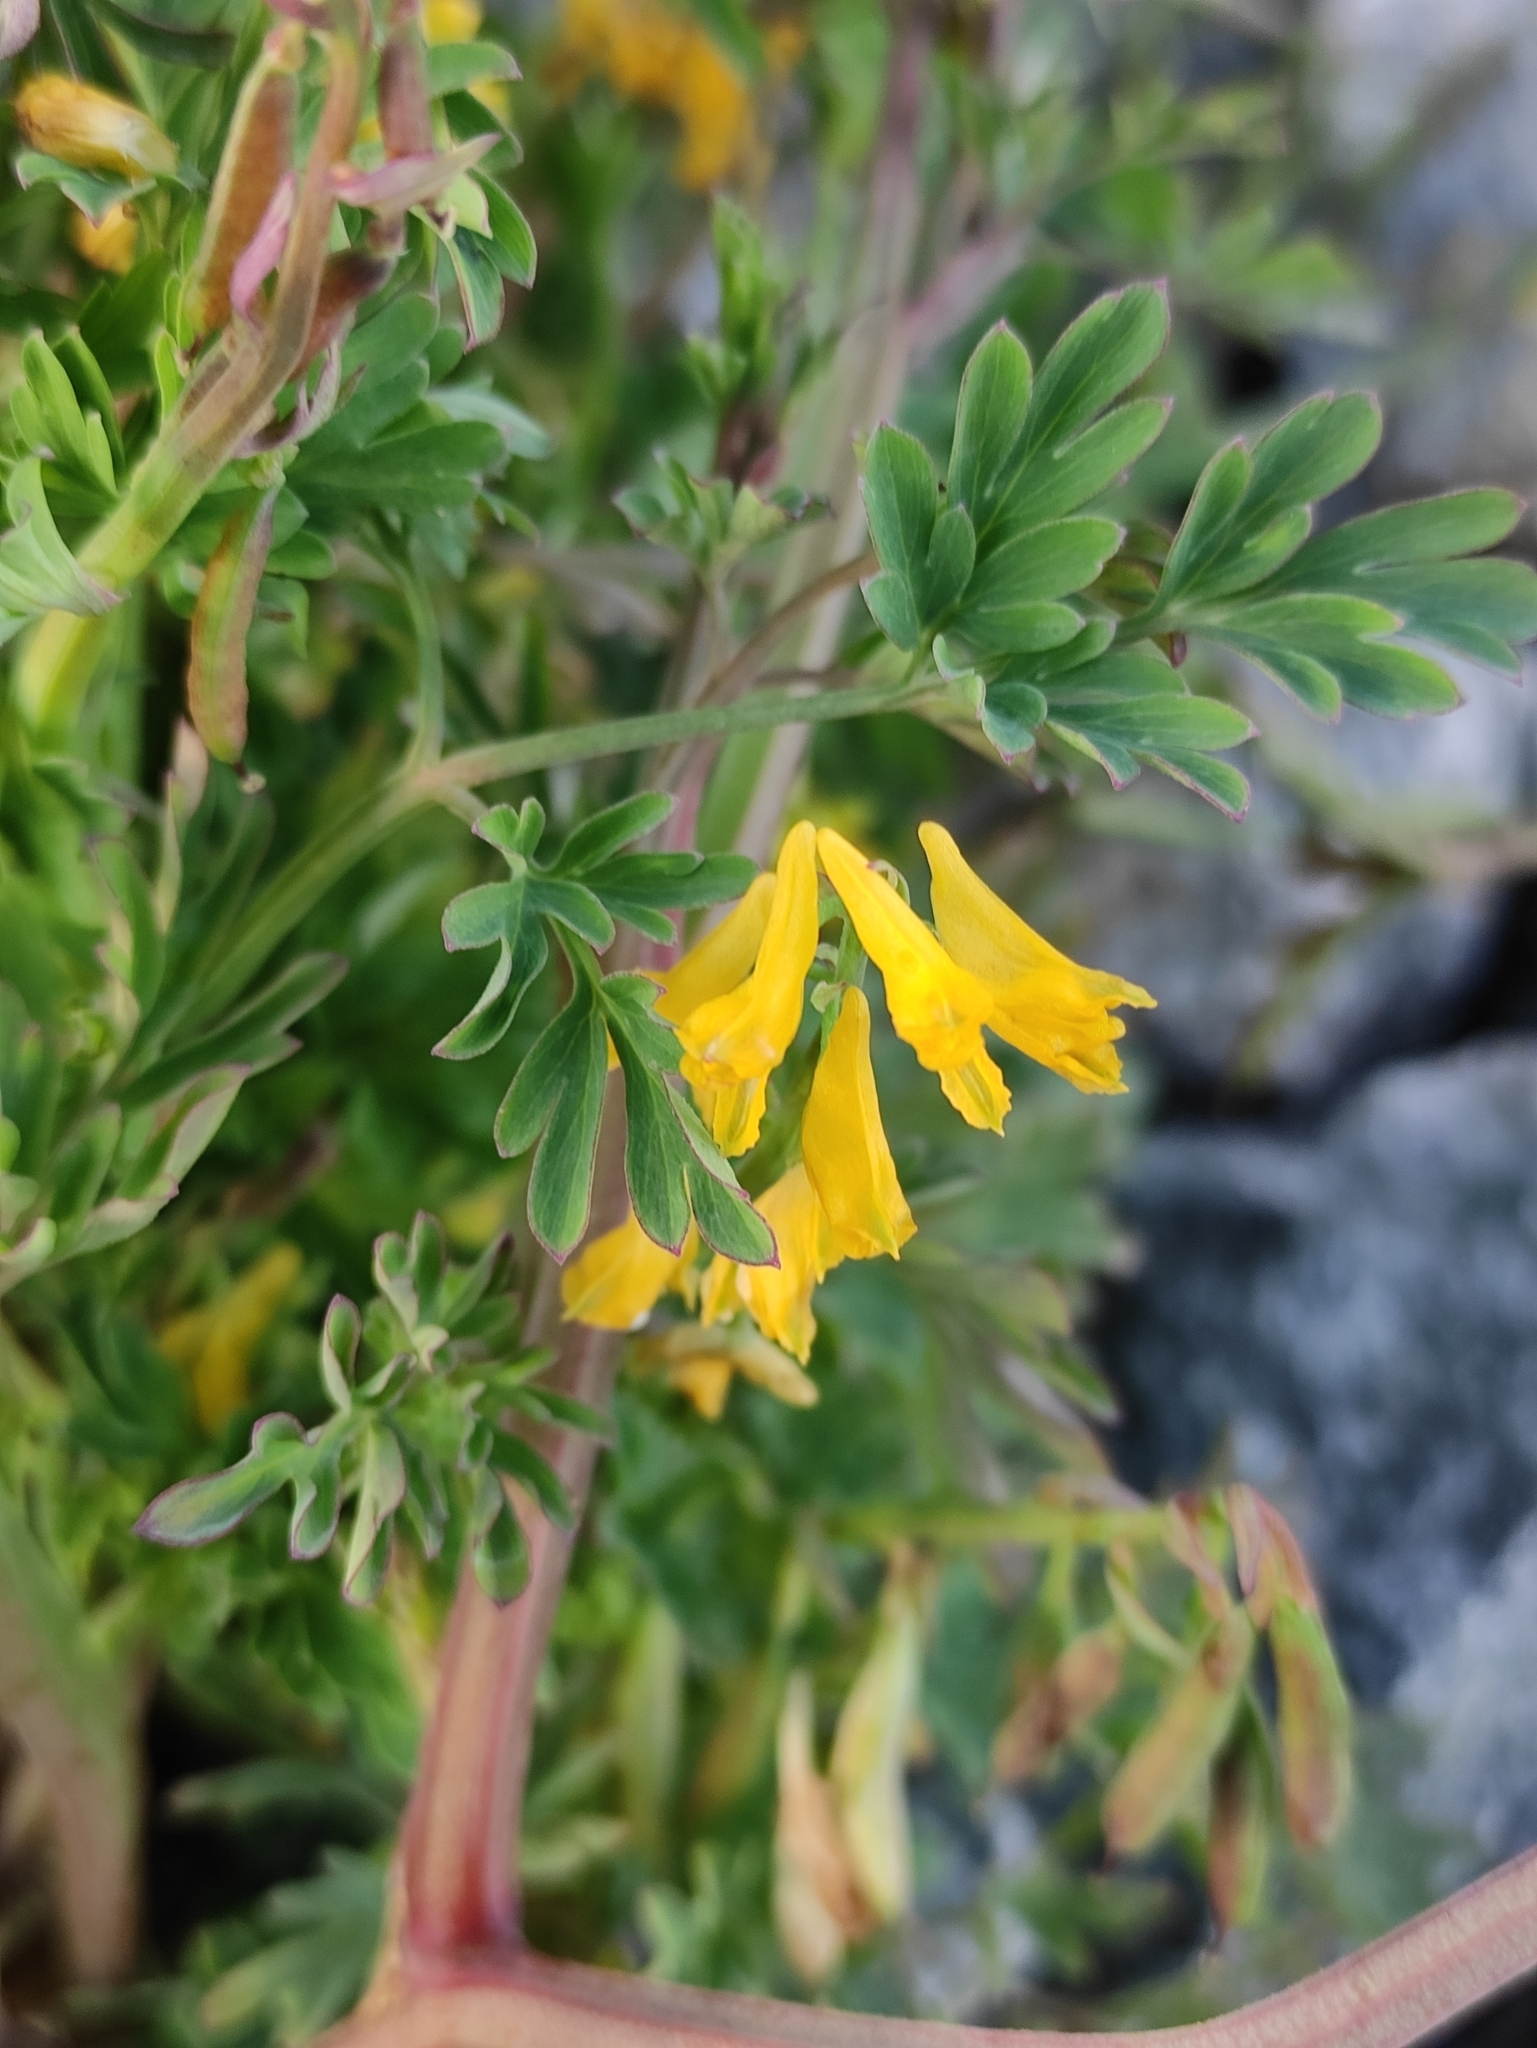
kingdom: Plantae
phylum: Tracheophyta
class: Magnoliopsida
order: Ranunculales
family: Papaveraceae
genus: Corydalis
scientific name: Corydalis impatiens
